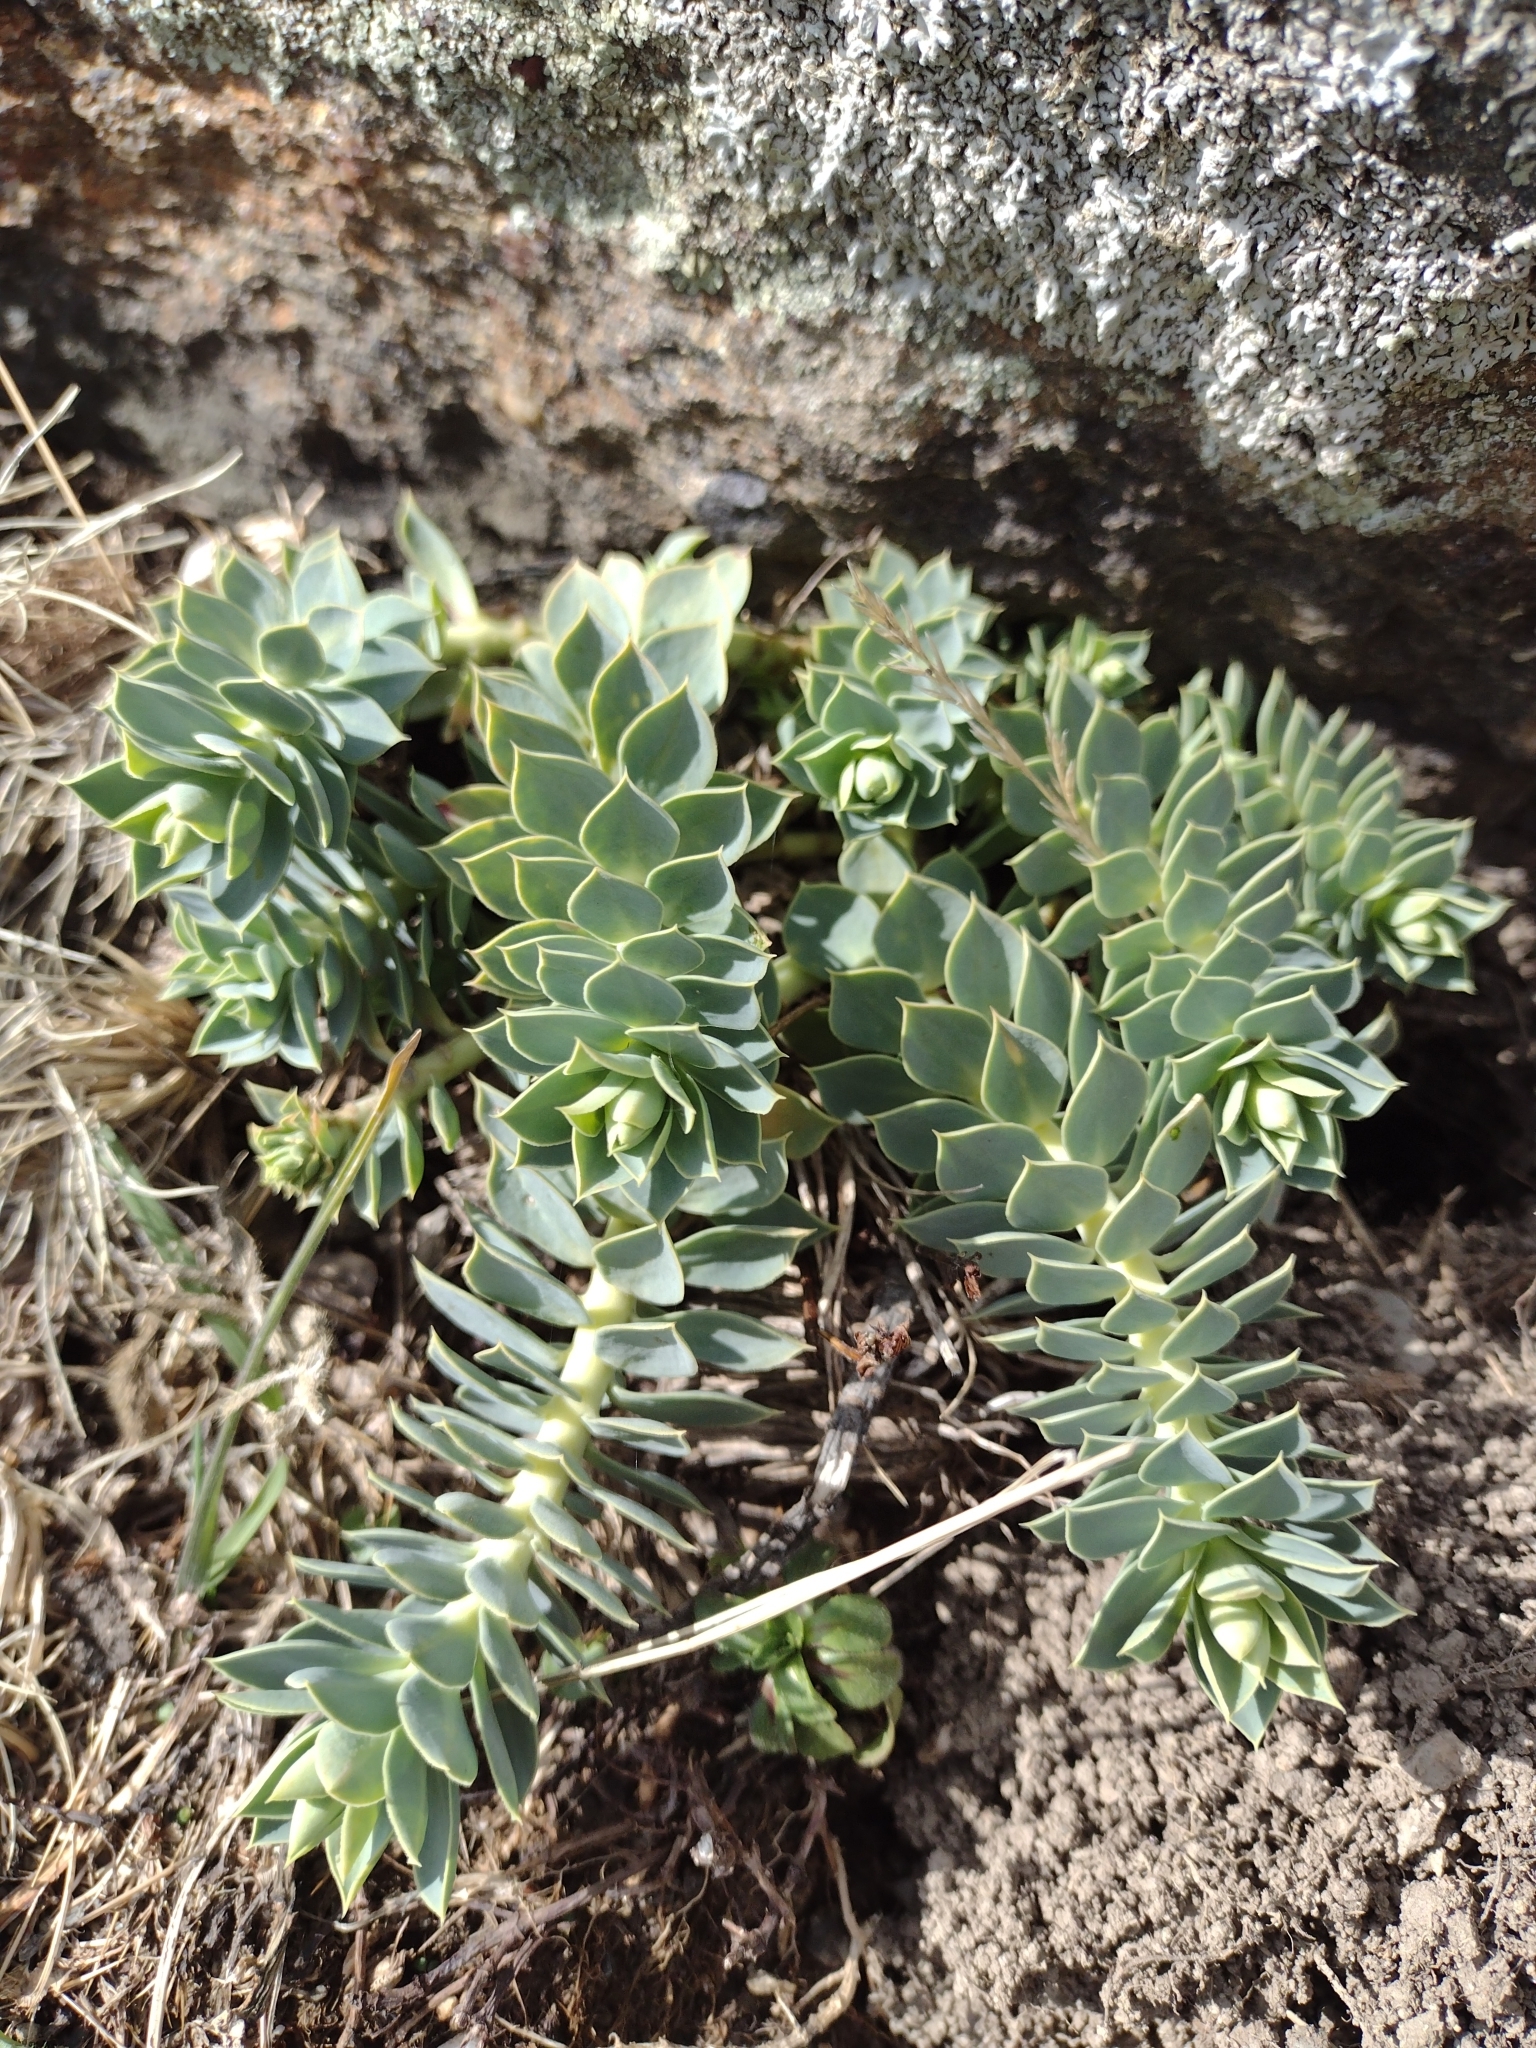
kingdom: Plantae
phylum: Tracheophyta
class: Magnoliopsida
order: Malpighiales
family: Euphorbiaceae
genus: Euphorbia
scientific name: Euphorbia myrsinites
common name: Myrtle spurge
